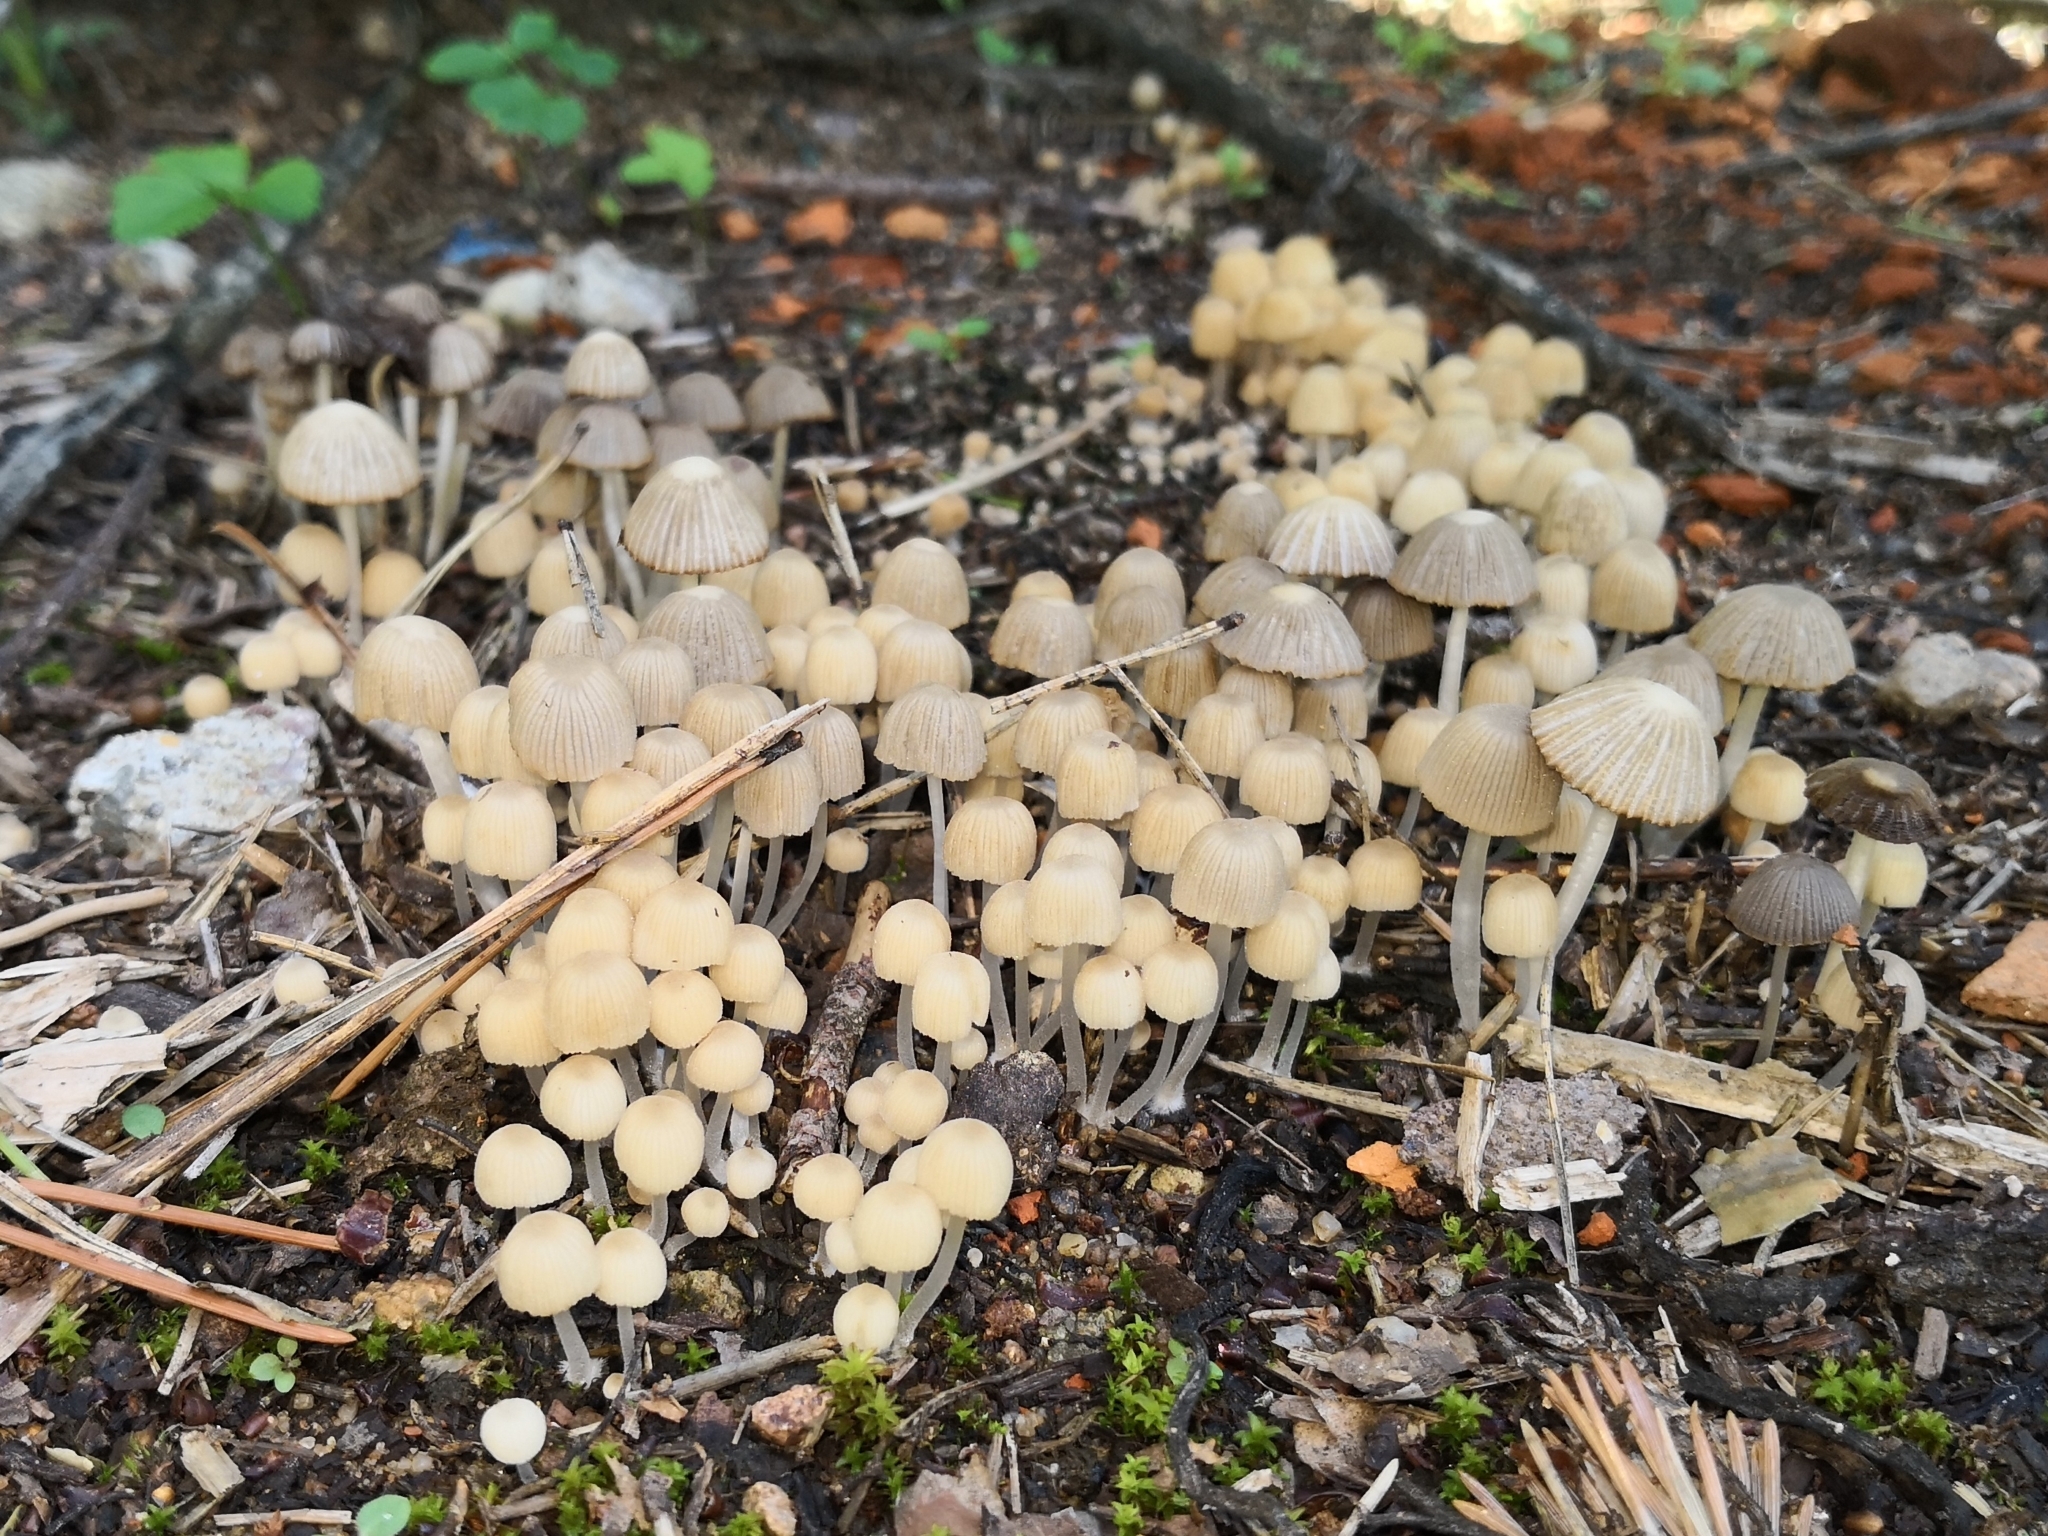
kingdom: Fungi
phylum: Basidiomycota
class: Agaricomycetes
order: Agaricales
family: Psathyrellaceae
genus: Coprinellus
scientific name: Coprinellus disseminatus
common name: Fairies' bonnets
